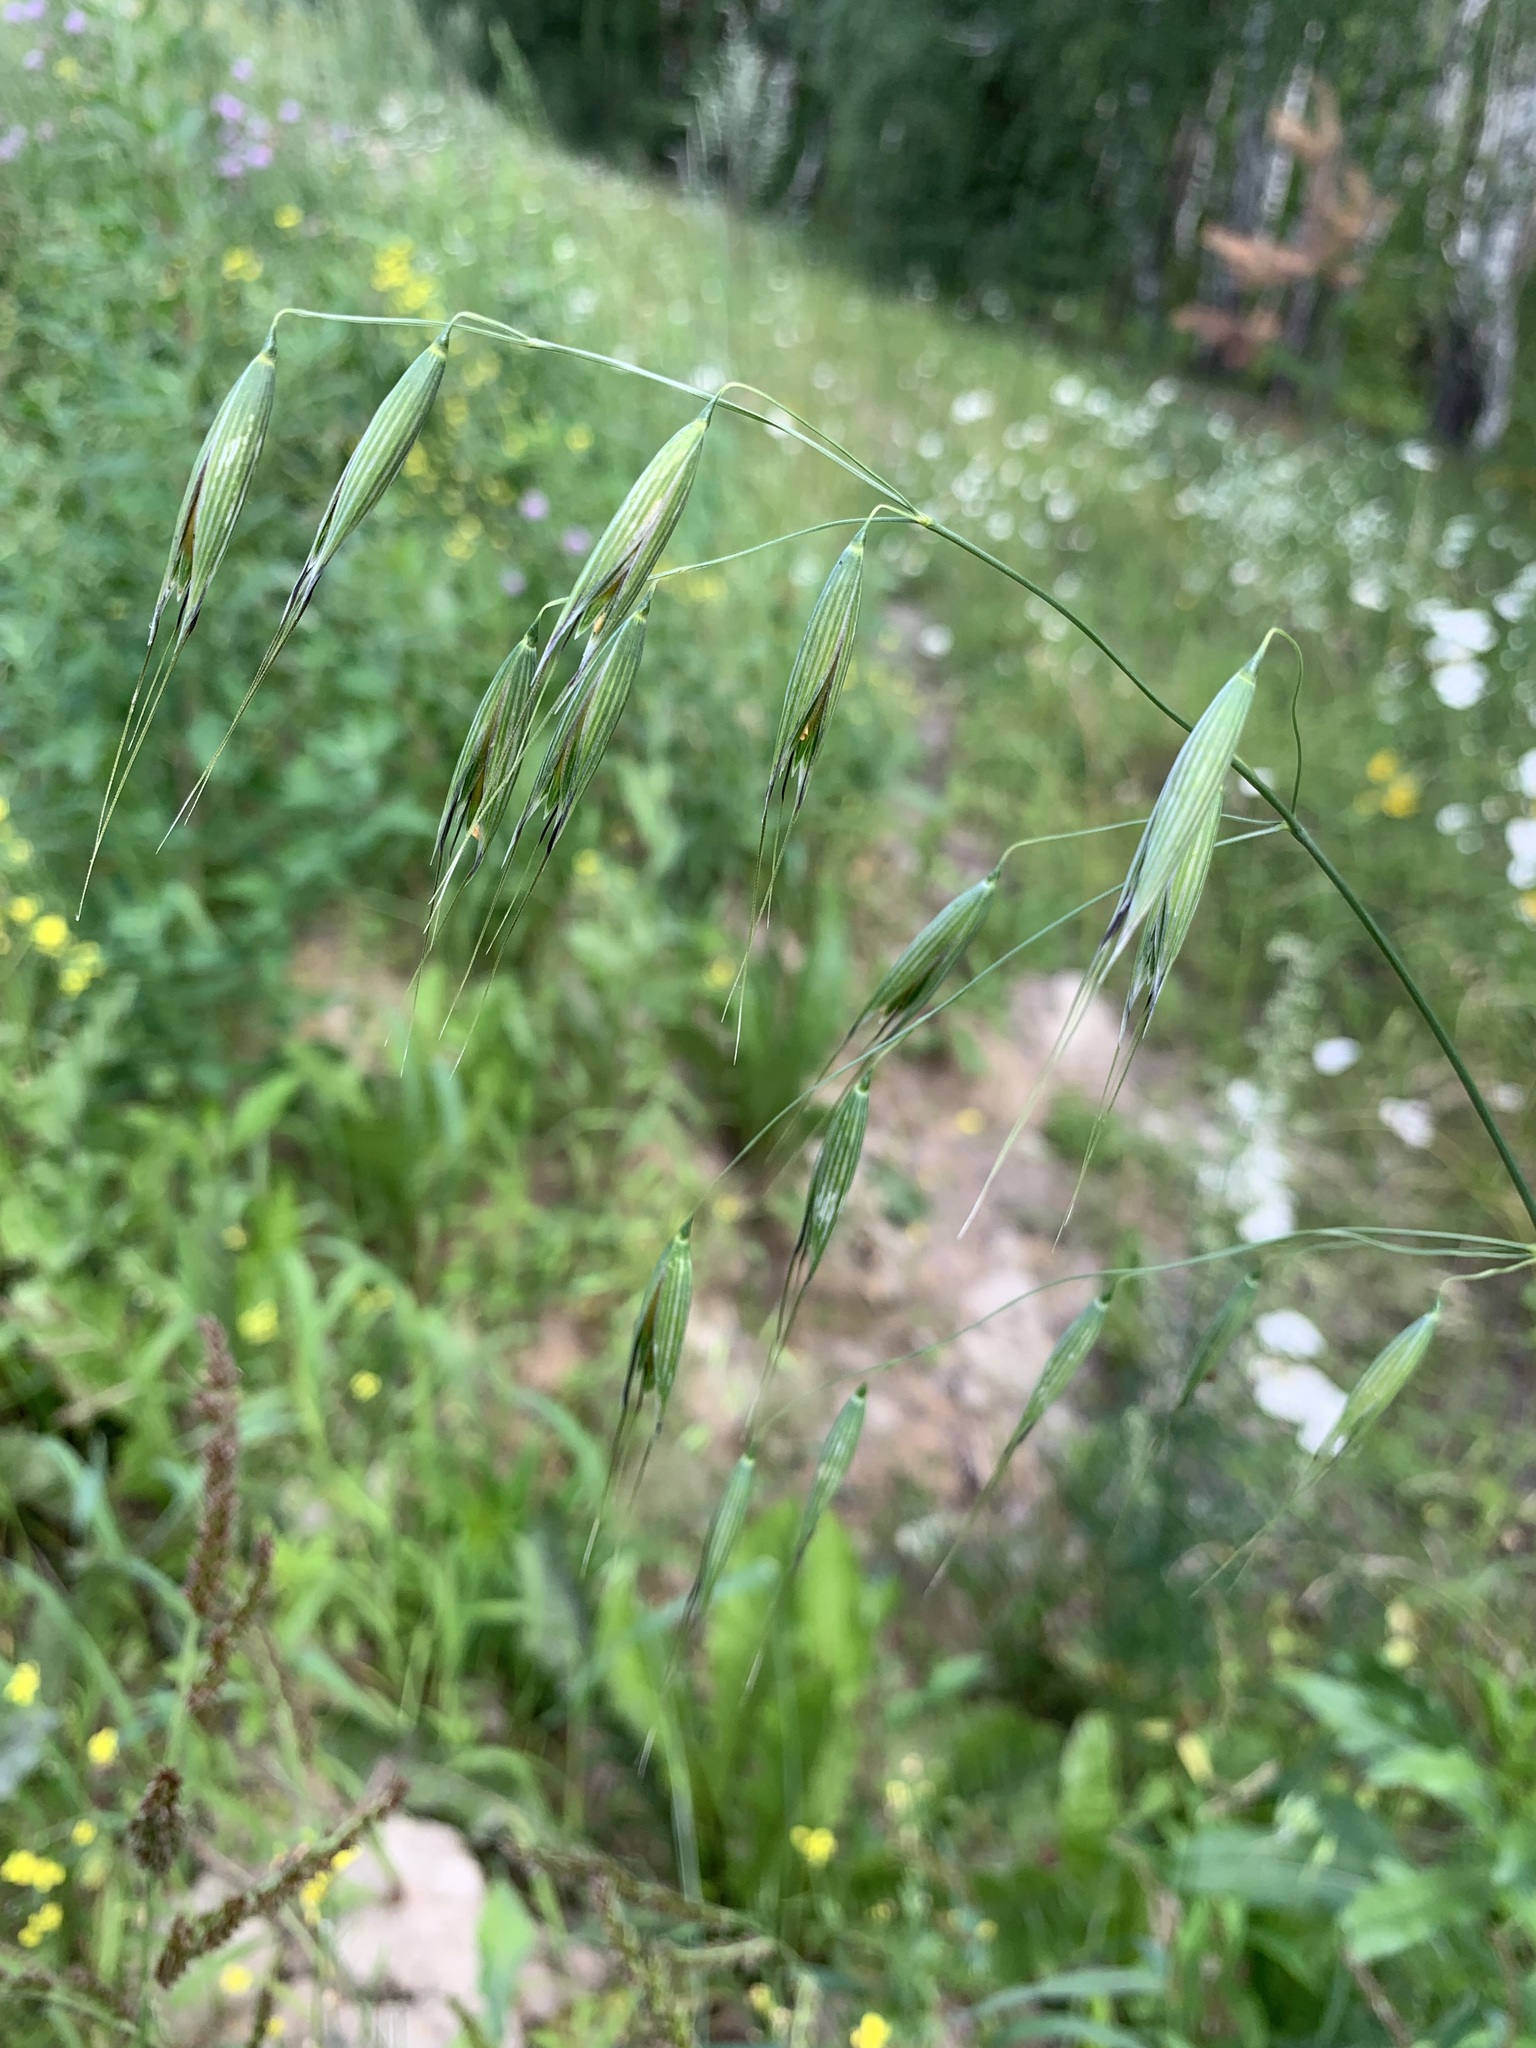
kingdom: Plantae
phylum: Tracheophyta
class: Liliopsida
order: Poales
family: Poaceae
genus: Avena
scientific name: Avena fatua
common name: Wild oat
